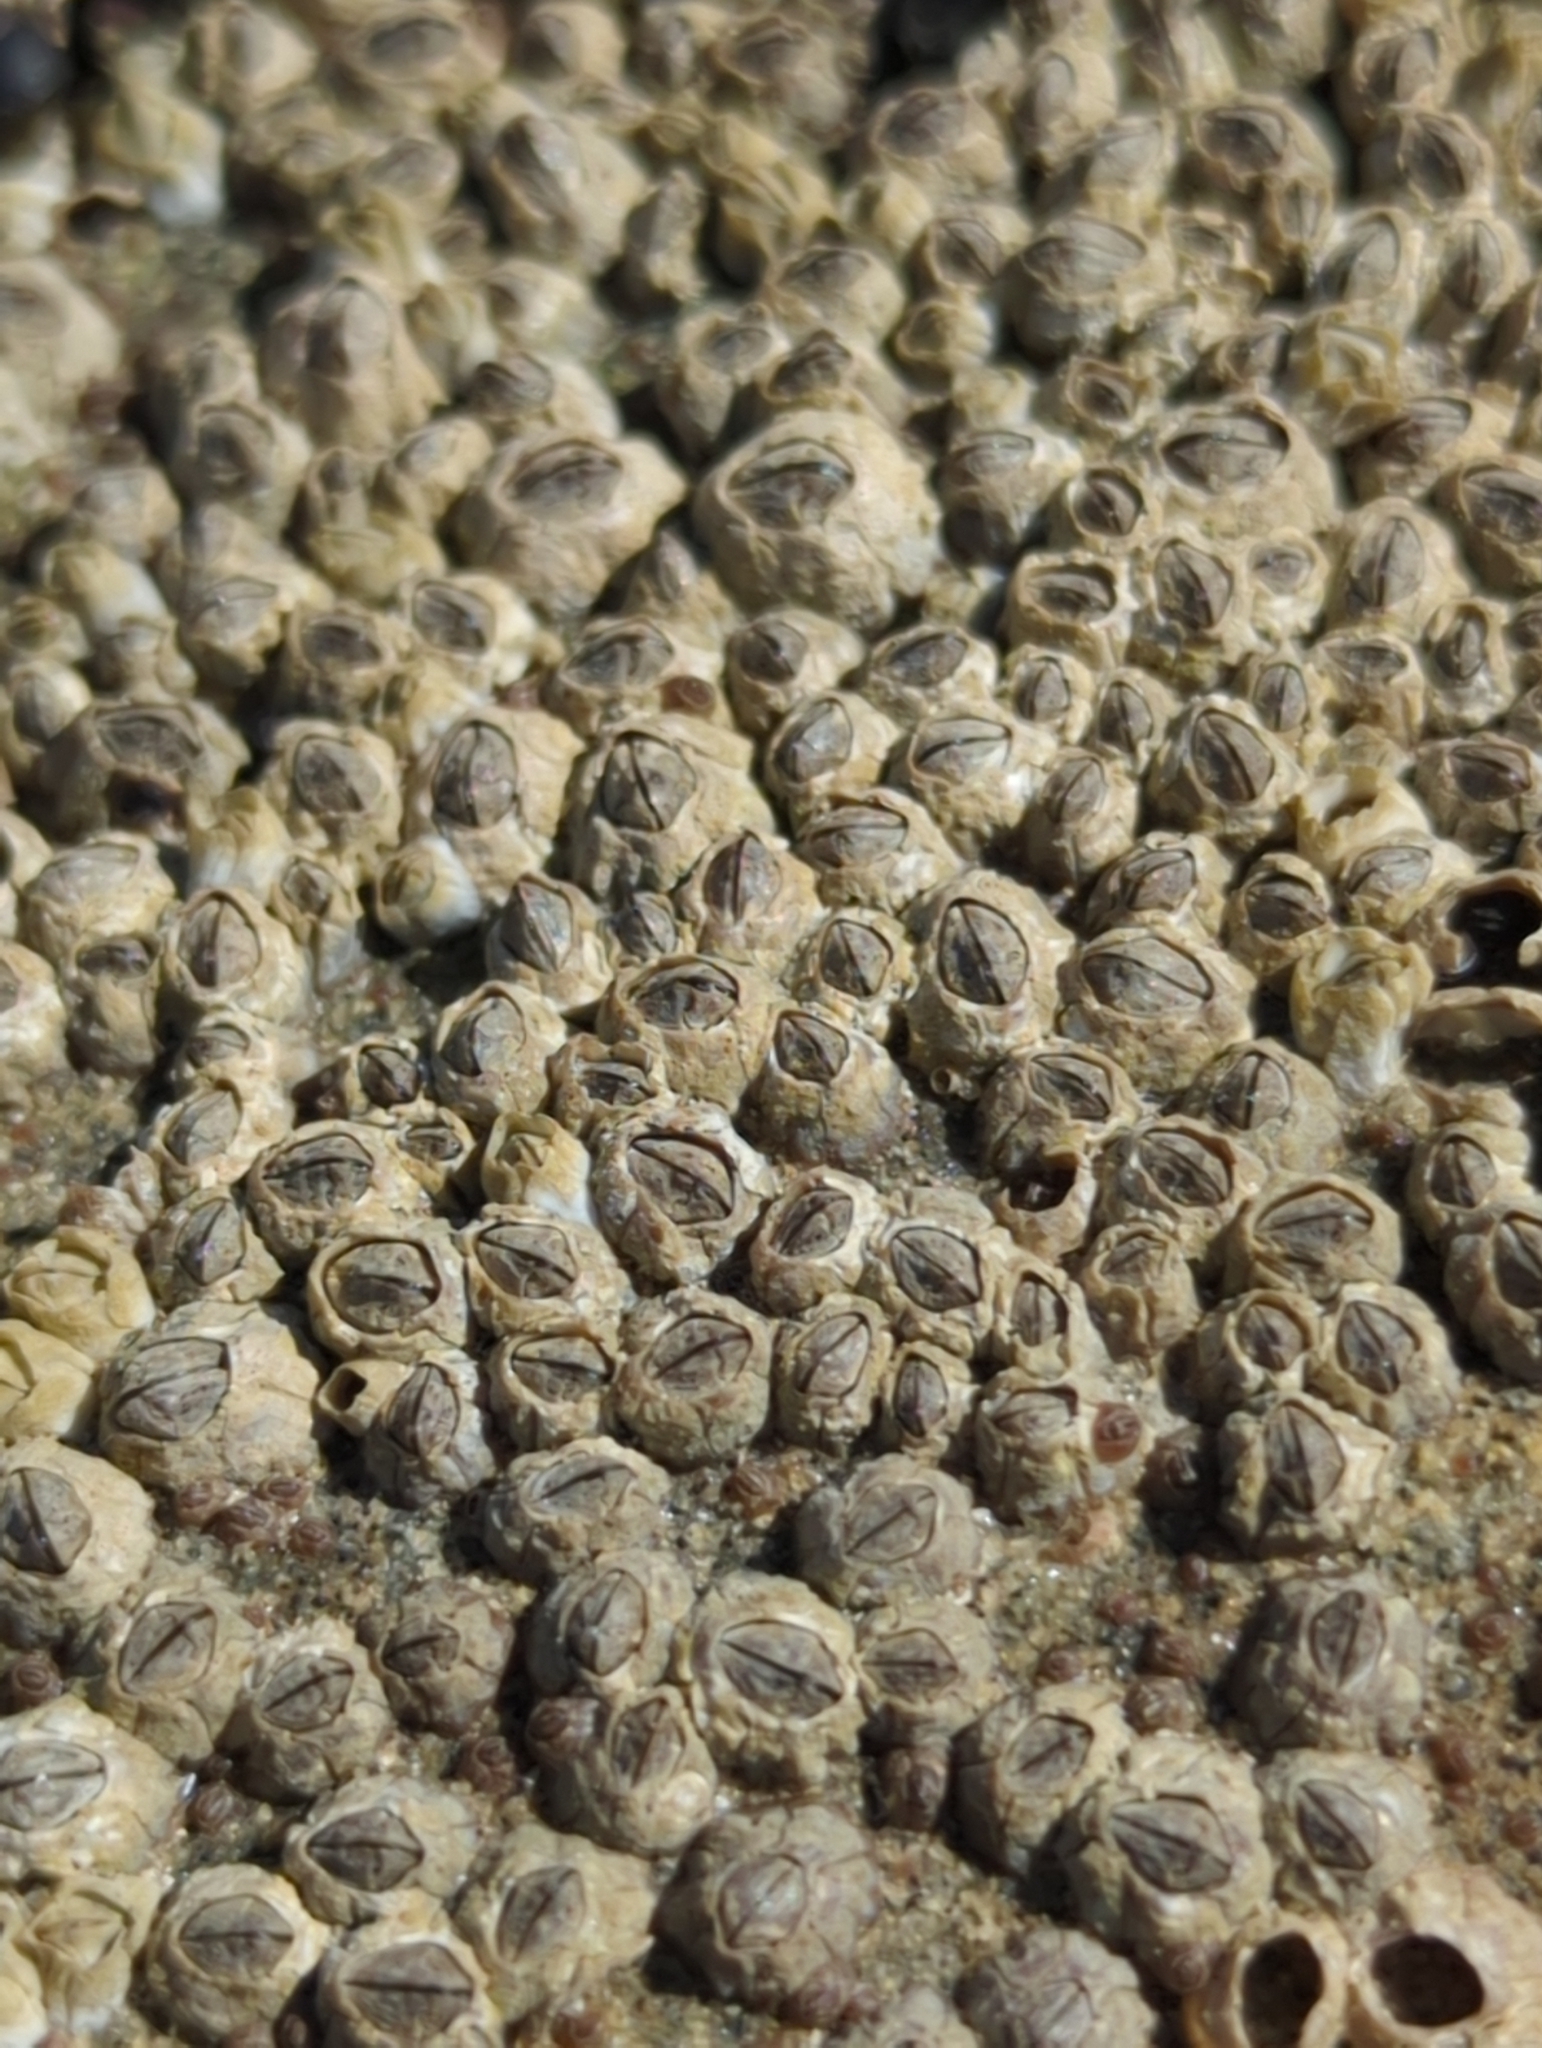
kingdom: Animalia
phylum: Arthropoda
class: Maxillopoda
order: Sessilia
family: Chthamalidae
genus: Chthamalus
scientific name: Chthamalus dalli
